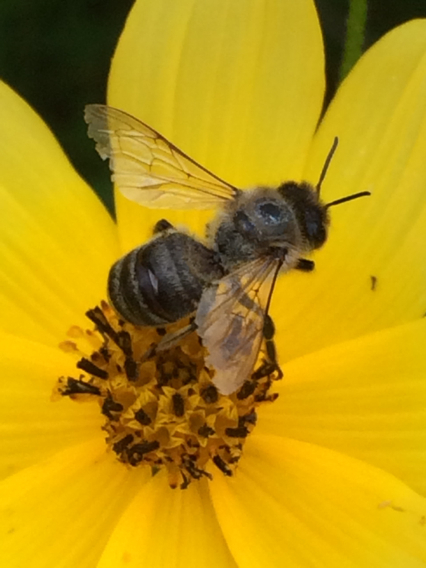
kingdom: Animalia
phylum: Arthropoda
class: Insecta
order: Hymenoptera
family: Apidae
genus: Apis
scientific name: Apis mellifera
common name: Honey bee
